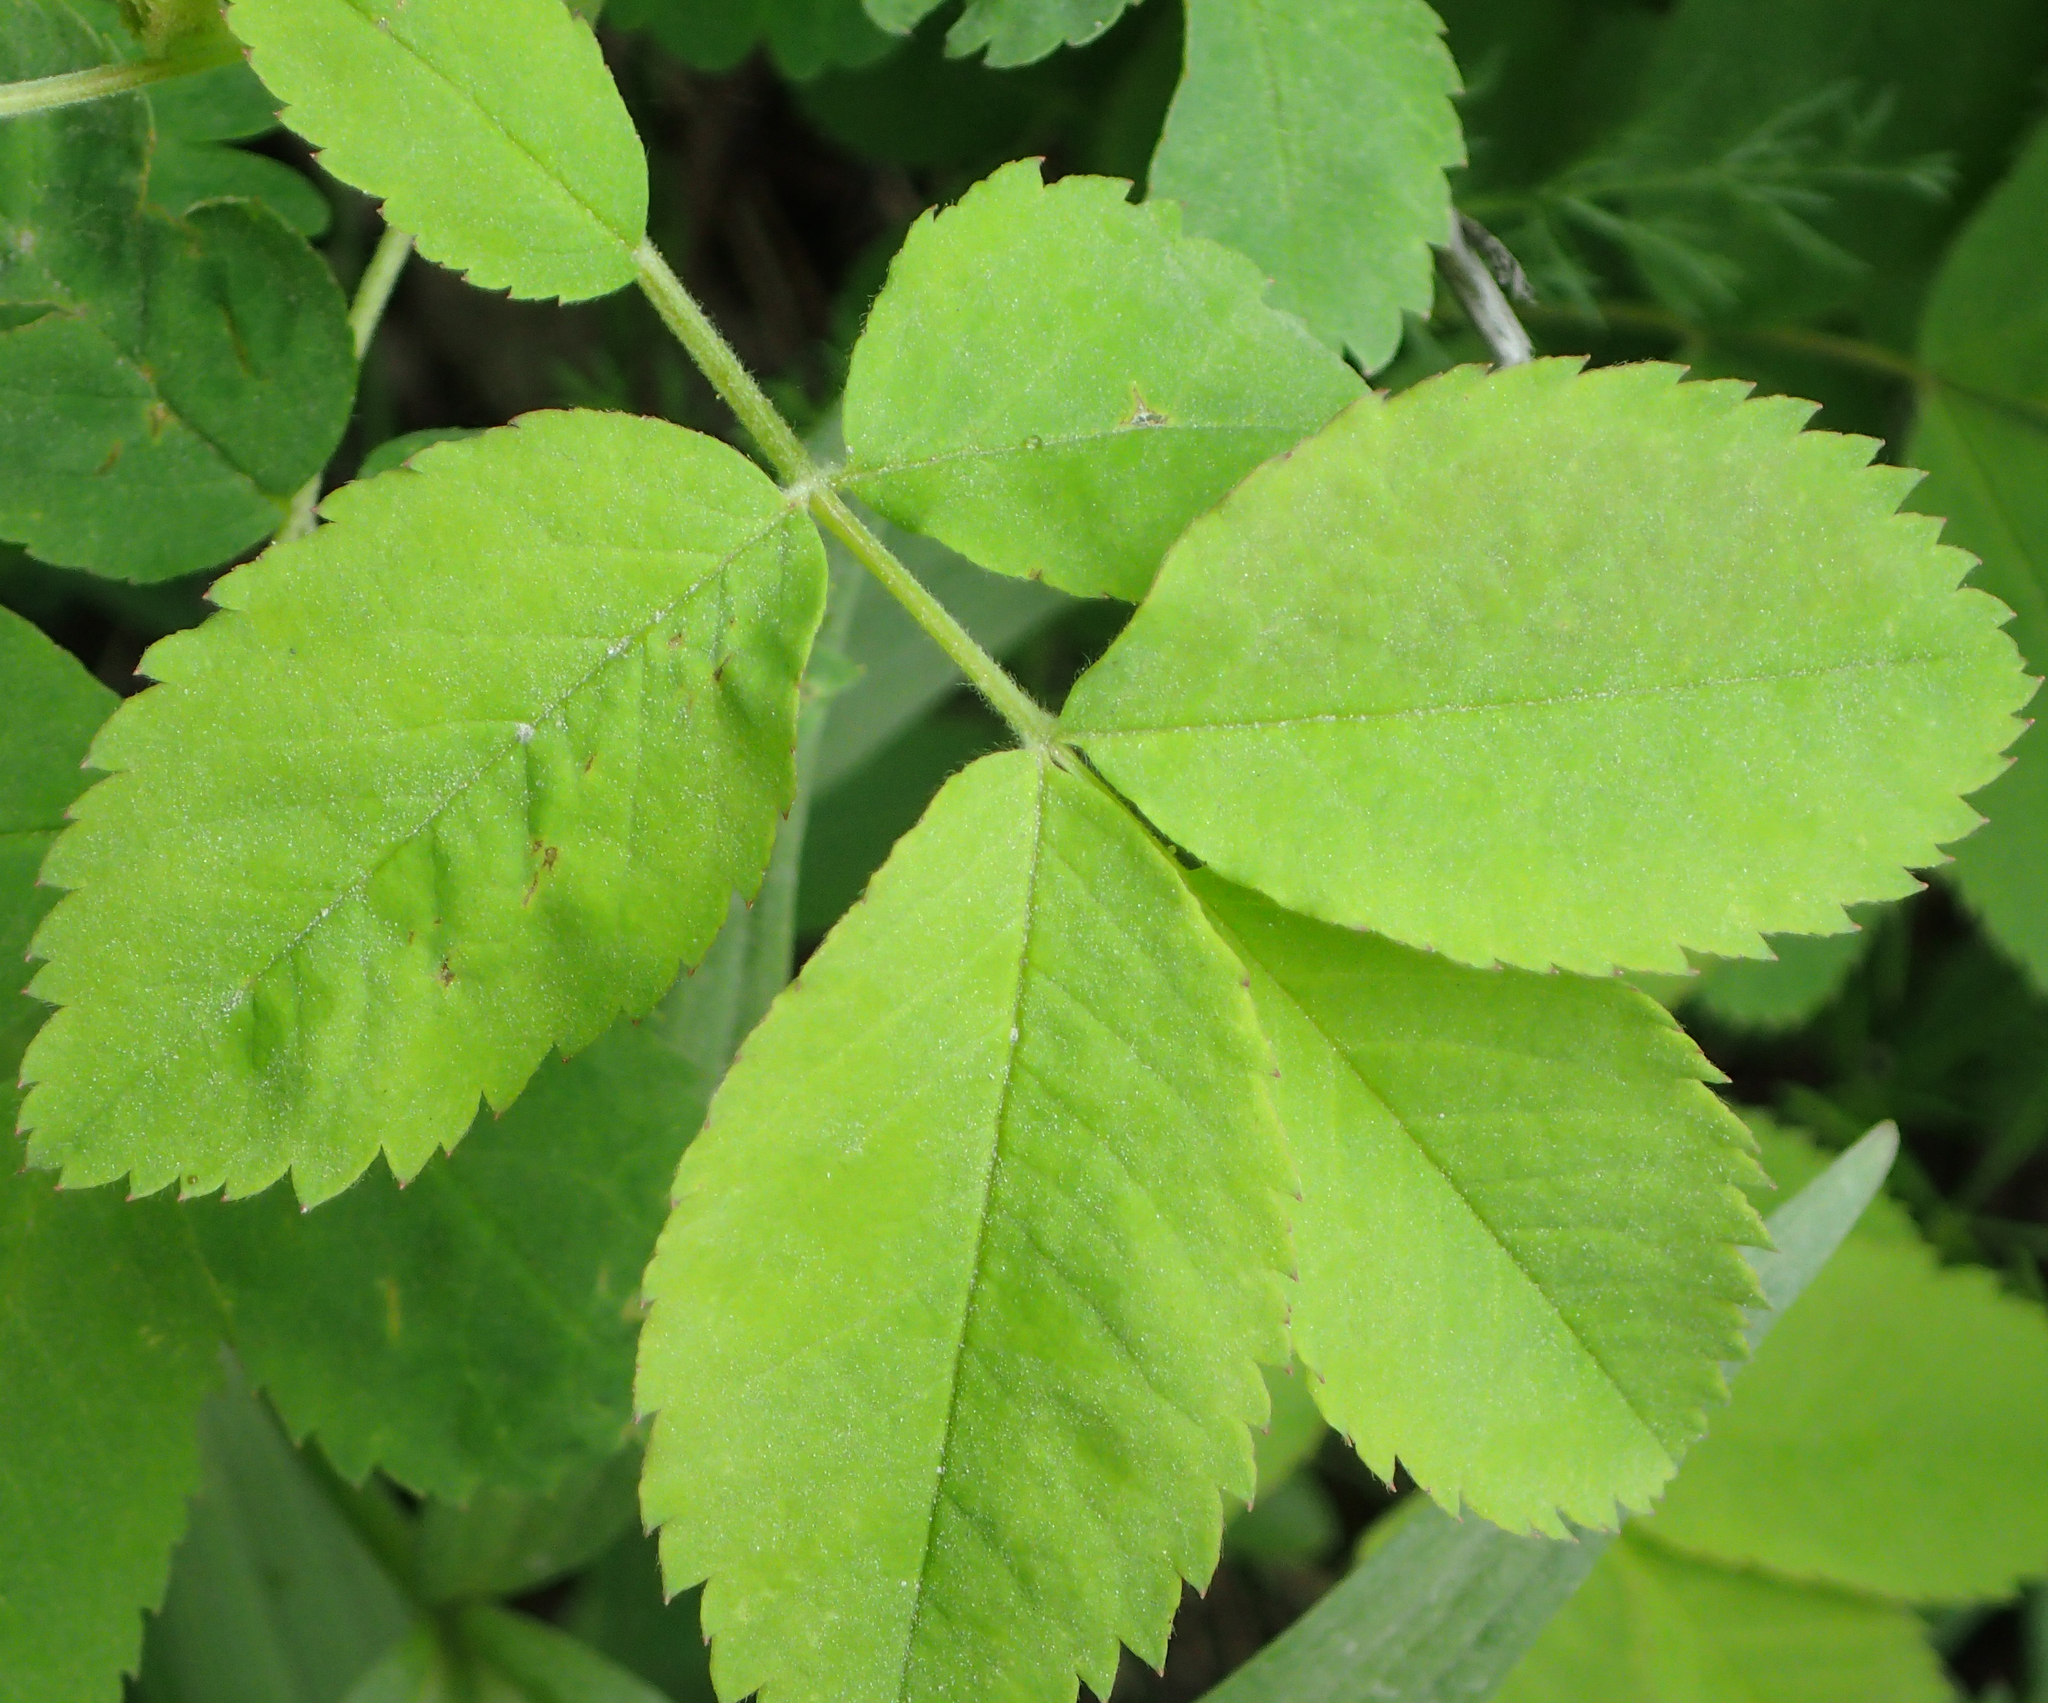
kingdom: Plantae
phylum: Tracheophyta
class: Magnoliopsida
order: Rosales
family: Rosaceae
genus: Rosa
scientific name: Rosa acicularis
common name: Prickly rose
